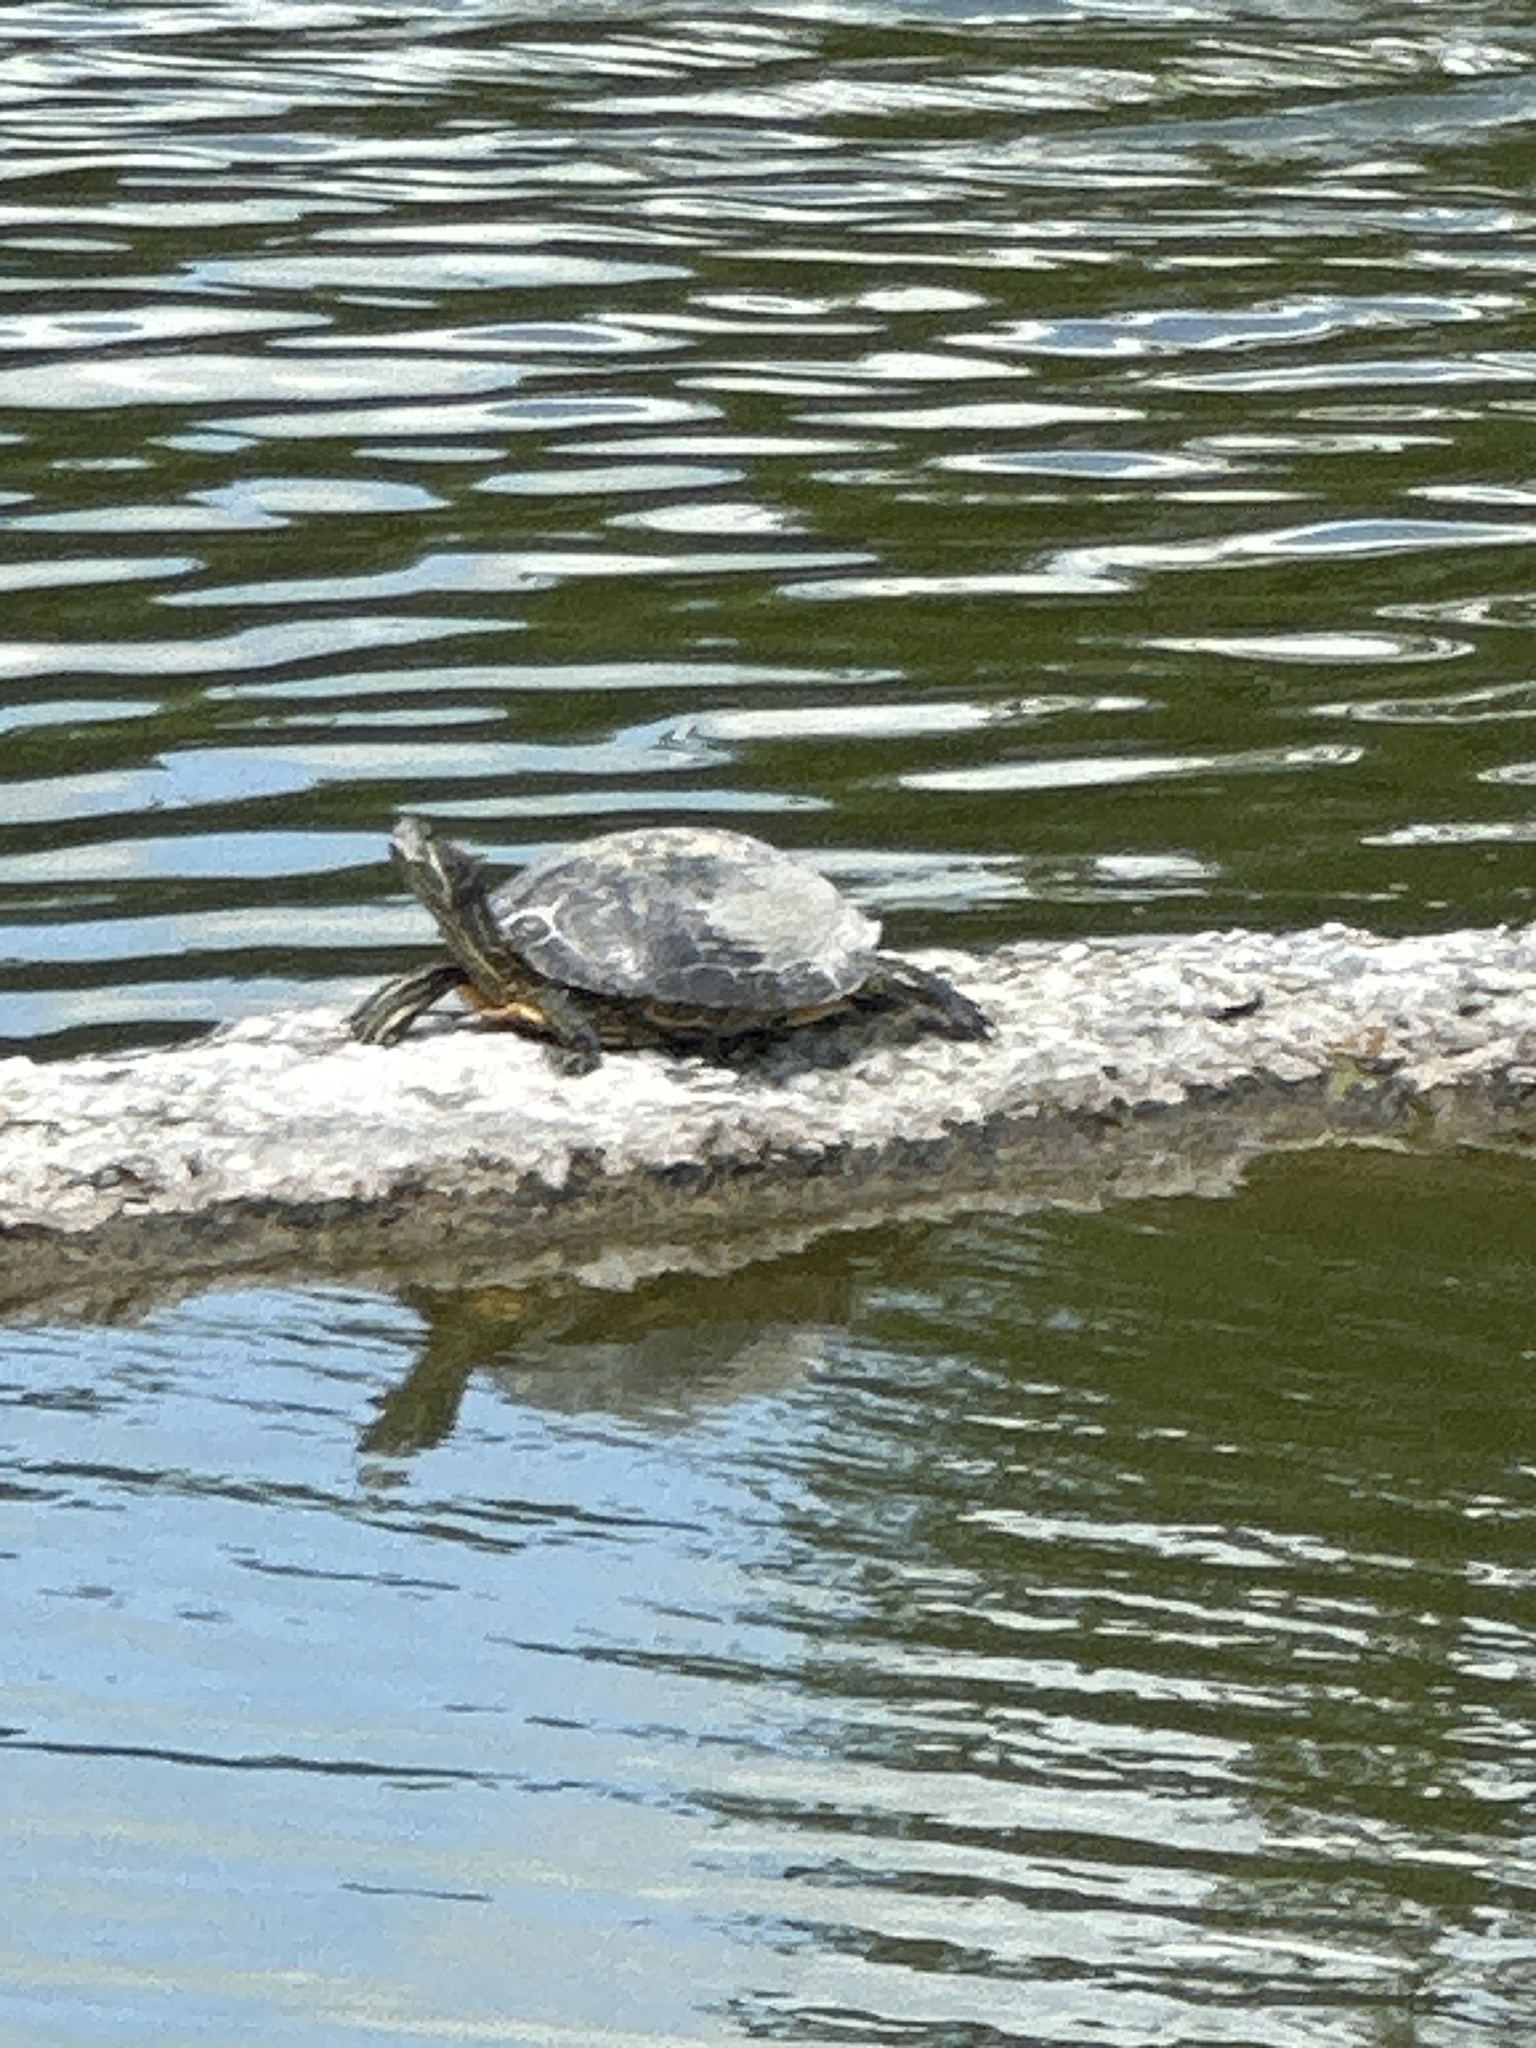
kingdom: Animalia
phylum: Chordata
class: Testudines
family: Emydidae
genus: Trachemys
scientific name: Trachemys scripta
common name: Slider
